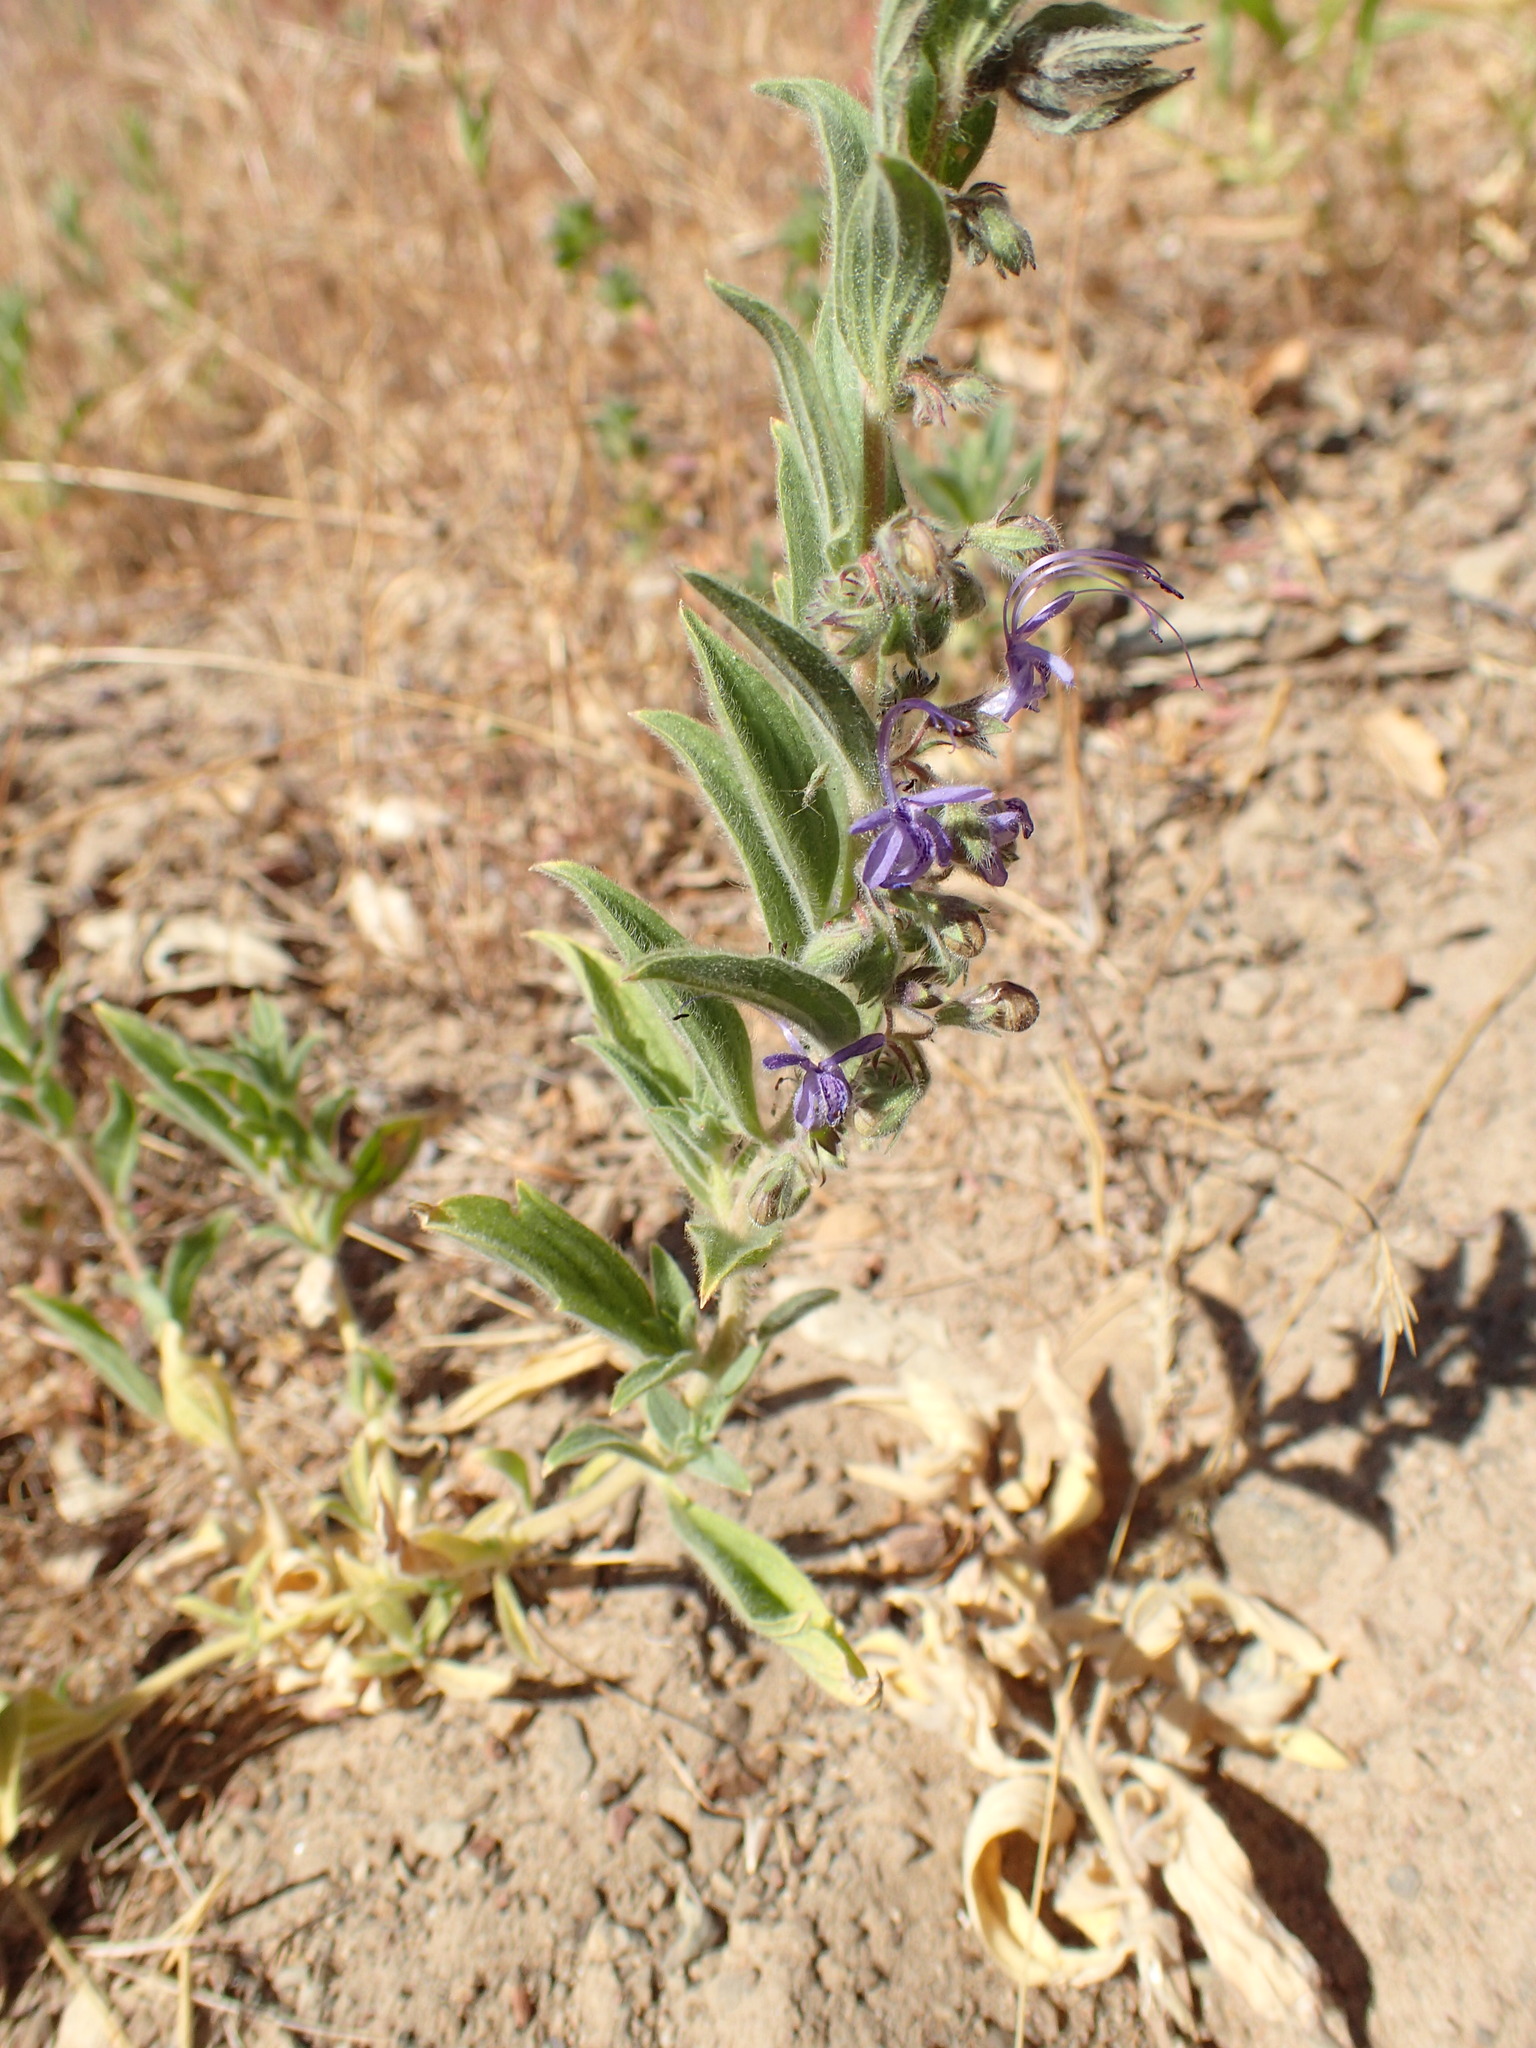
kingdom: Plantae
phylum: Tracheophyta
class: Magnoliopsida
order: Lamiales
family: Lamiaceae
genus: Trichostema
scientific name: Trichostema lanceolatum
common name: Vinegar-weed
